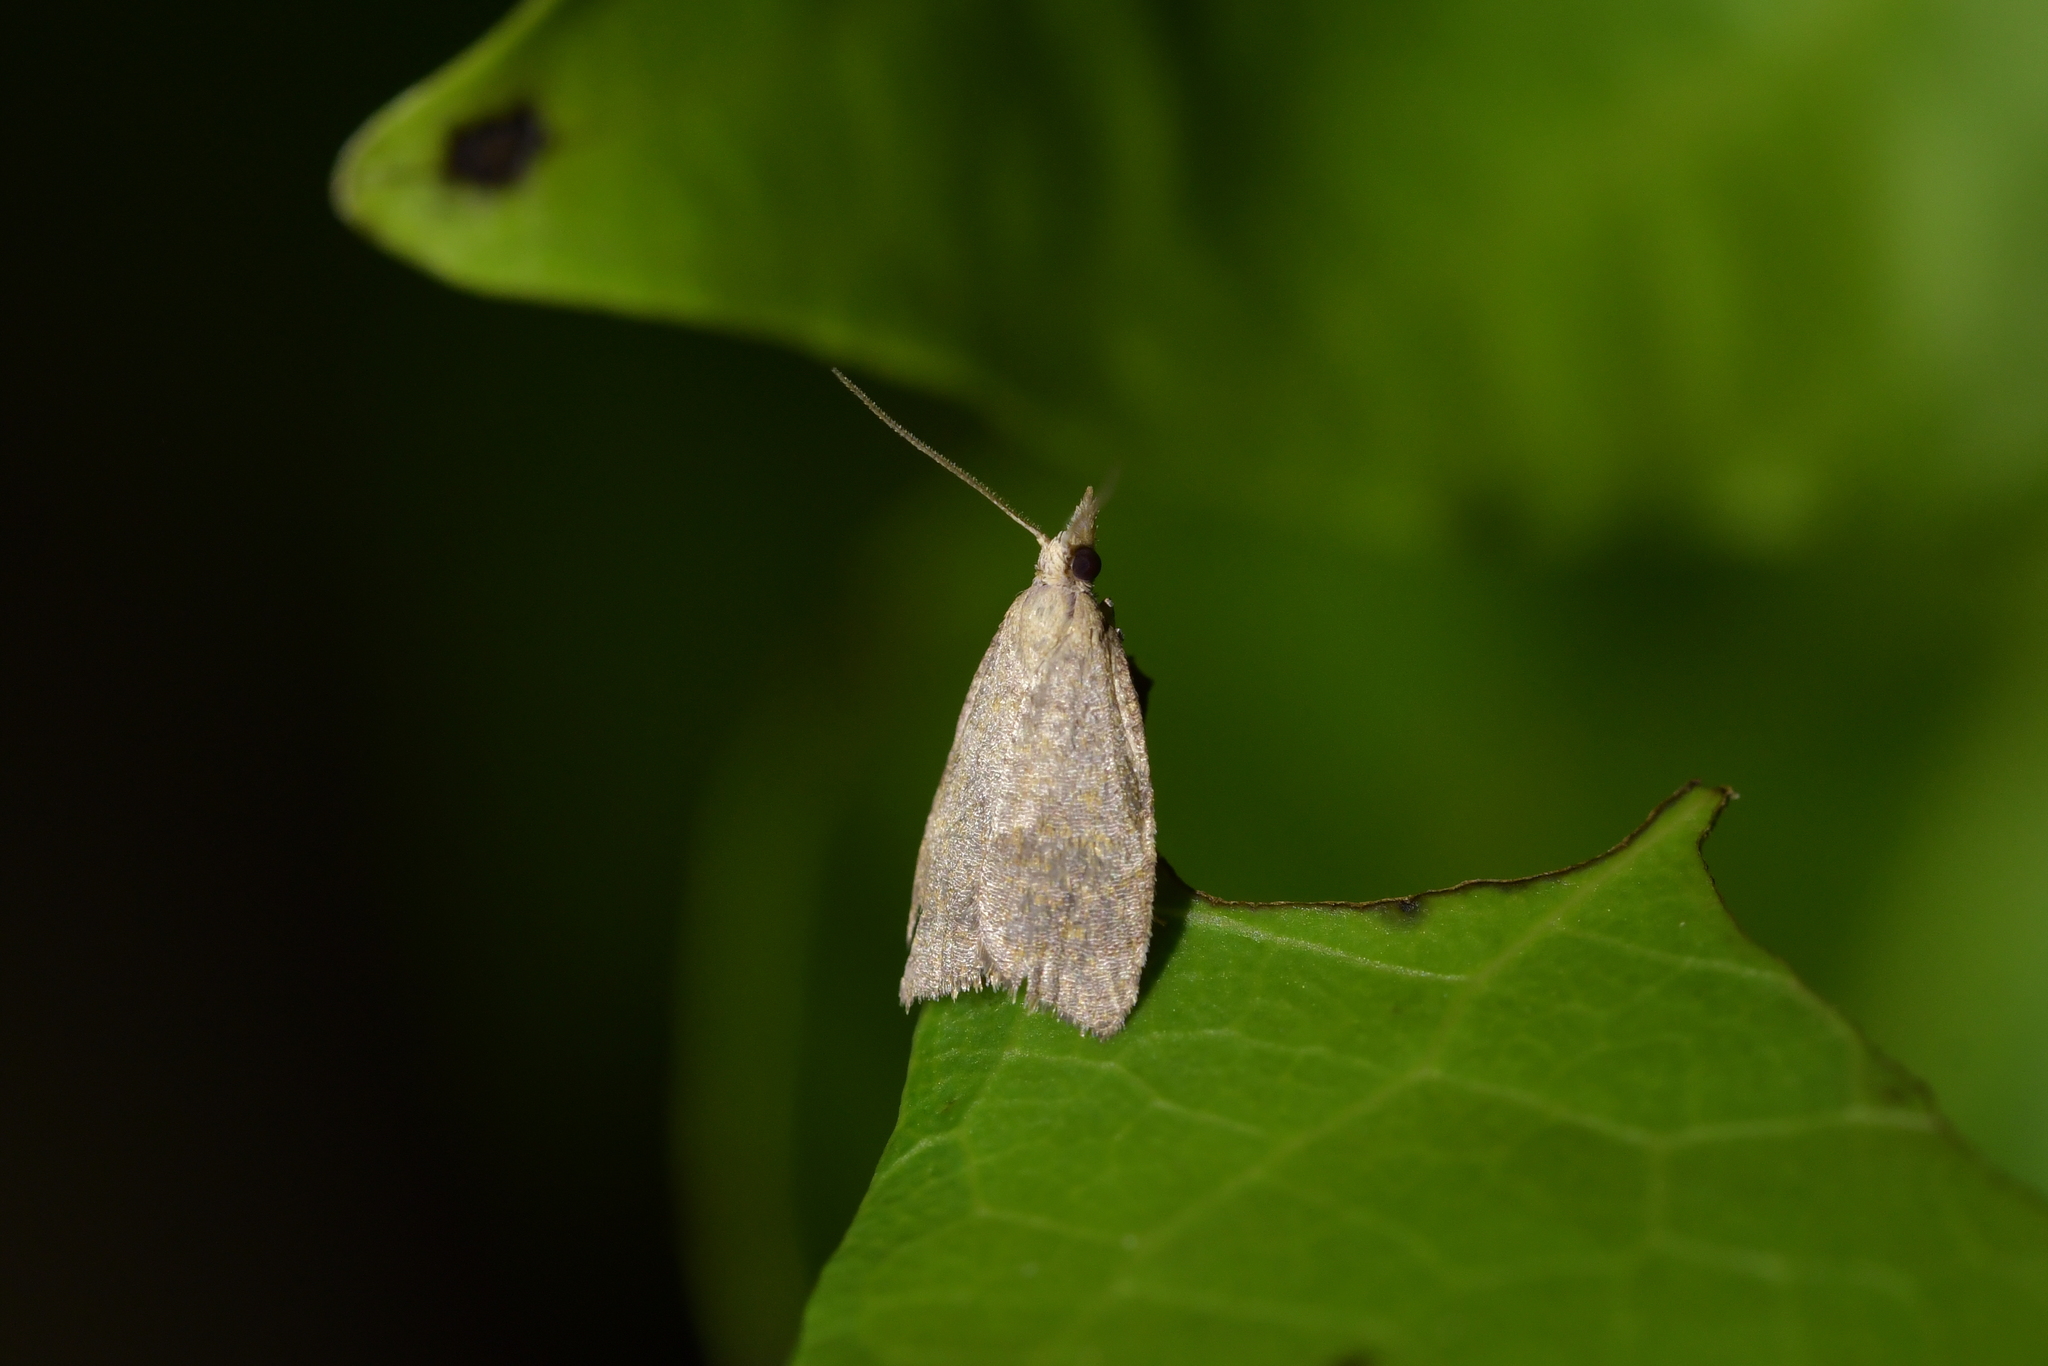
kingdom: Animalia
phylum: Arthropoda
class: Insecta
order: Lepidoptera
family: Tortricidae
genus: Catamacta
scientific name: Catamacta gavisana
